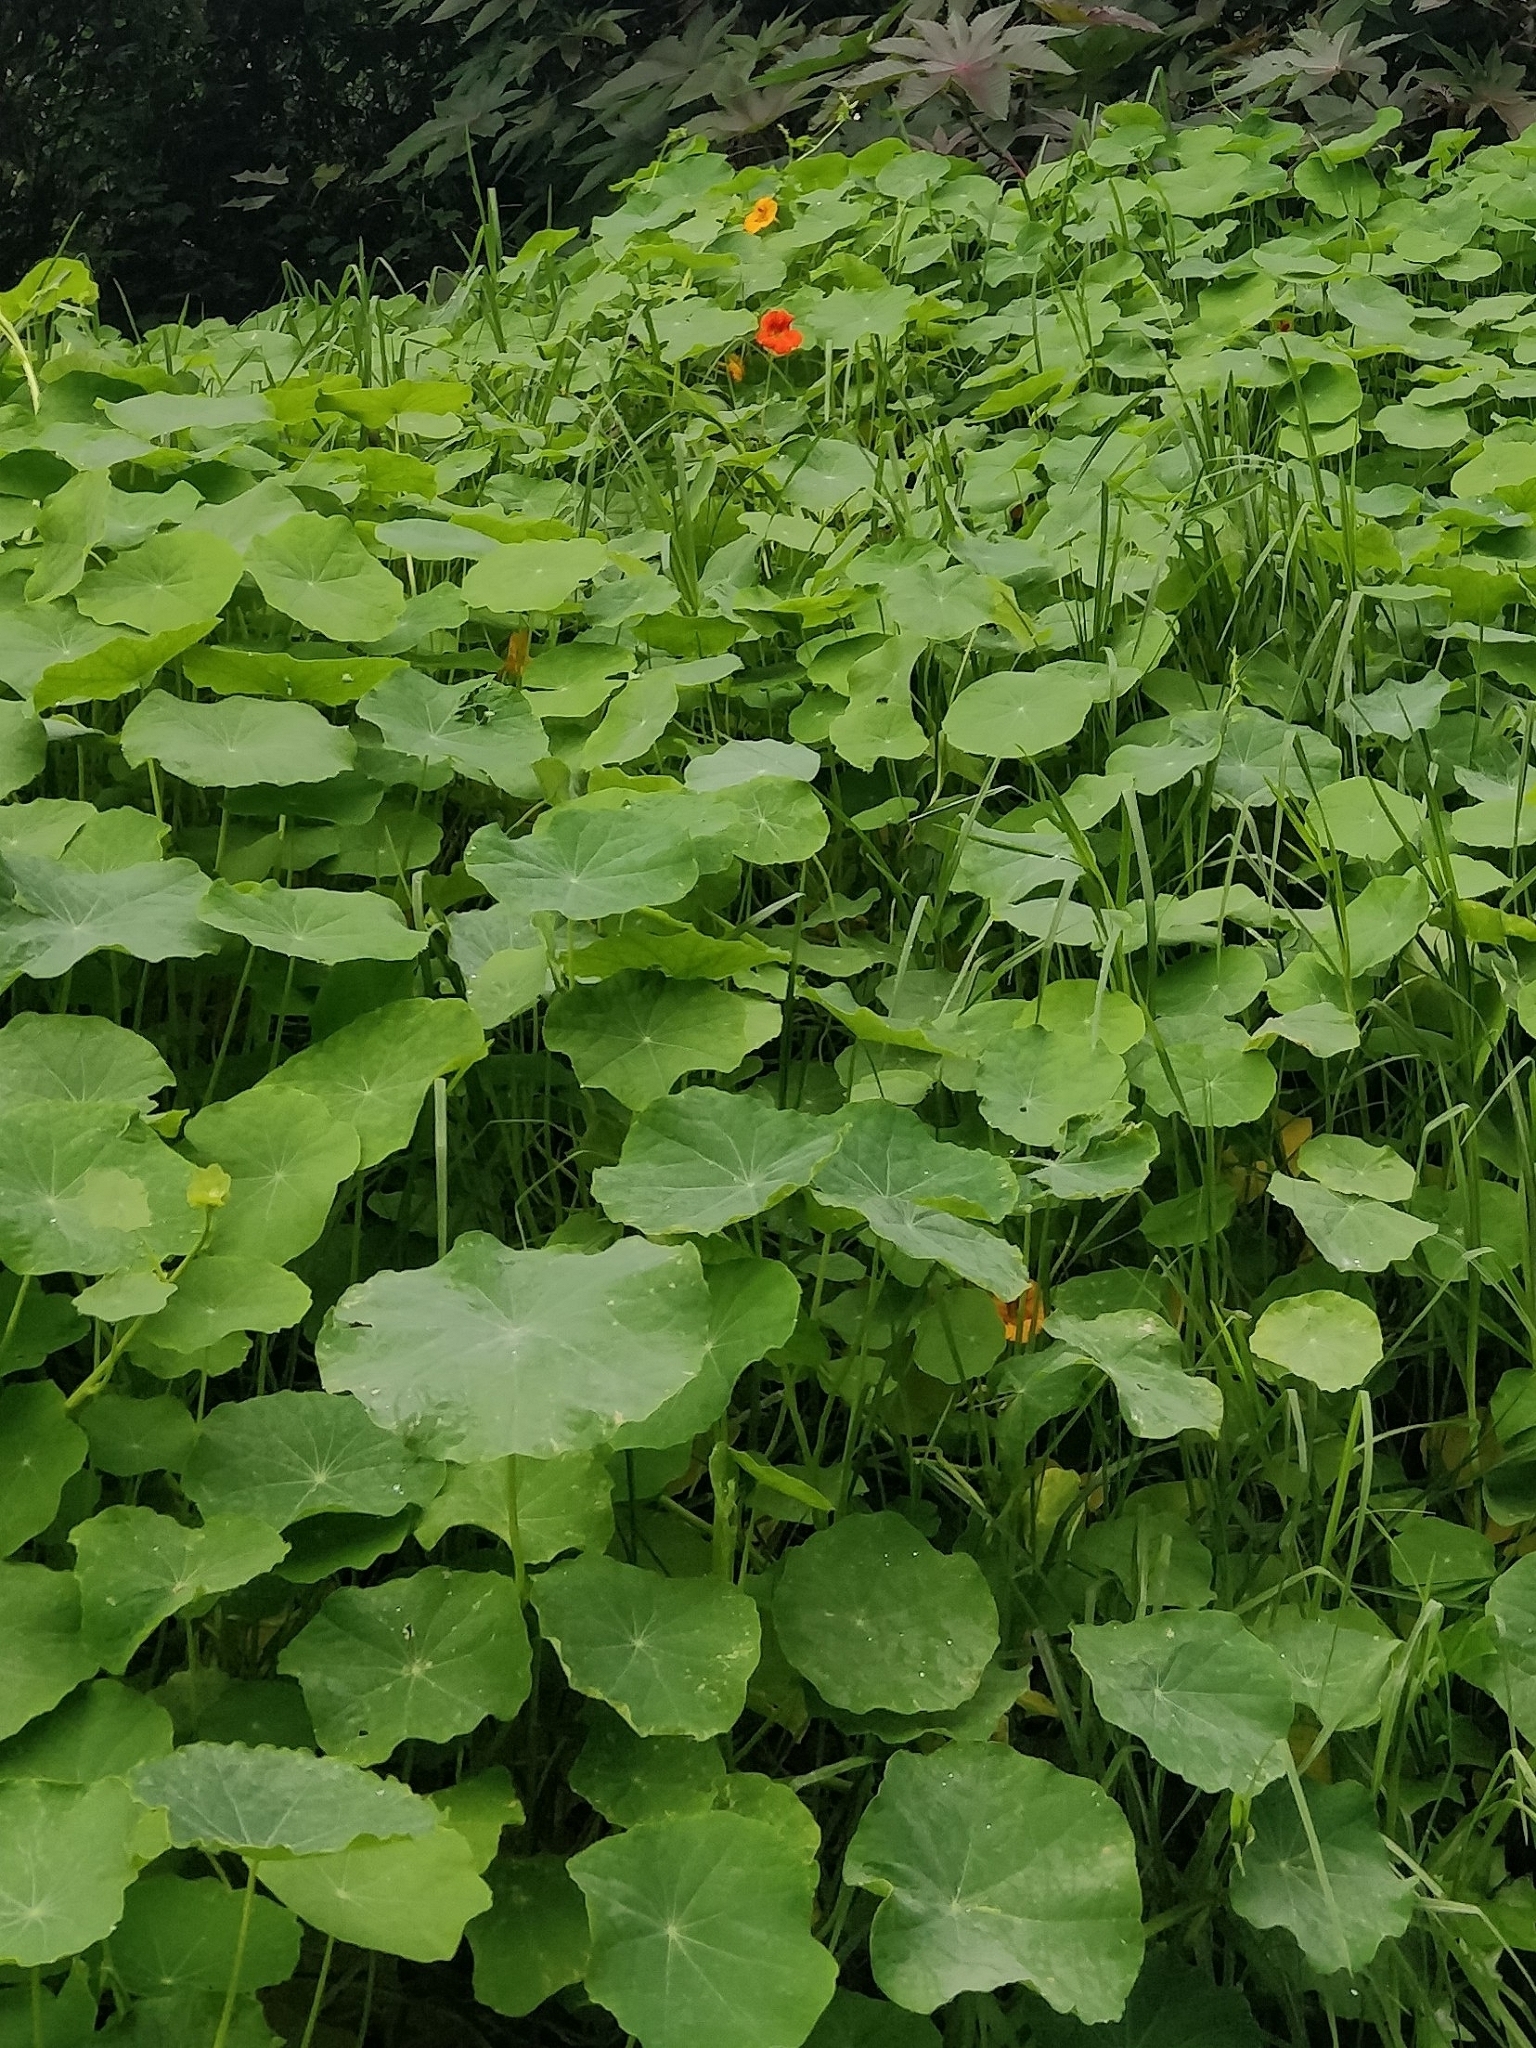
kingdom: Plantae
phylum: Tracheophyta
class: Magnoliopsida
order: Brassicales
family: Tropaeolaceae
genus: Tropaeolum
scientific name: Tropaeolum majus
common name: Nasturtium
